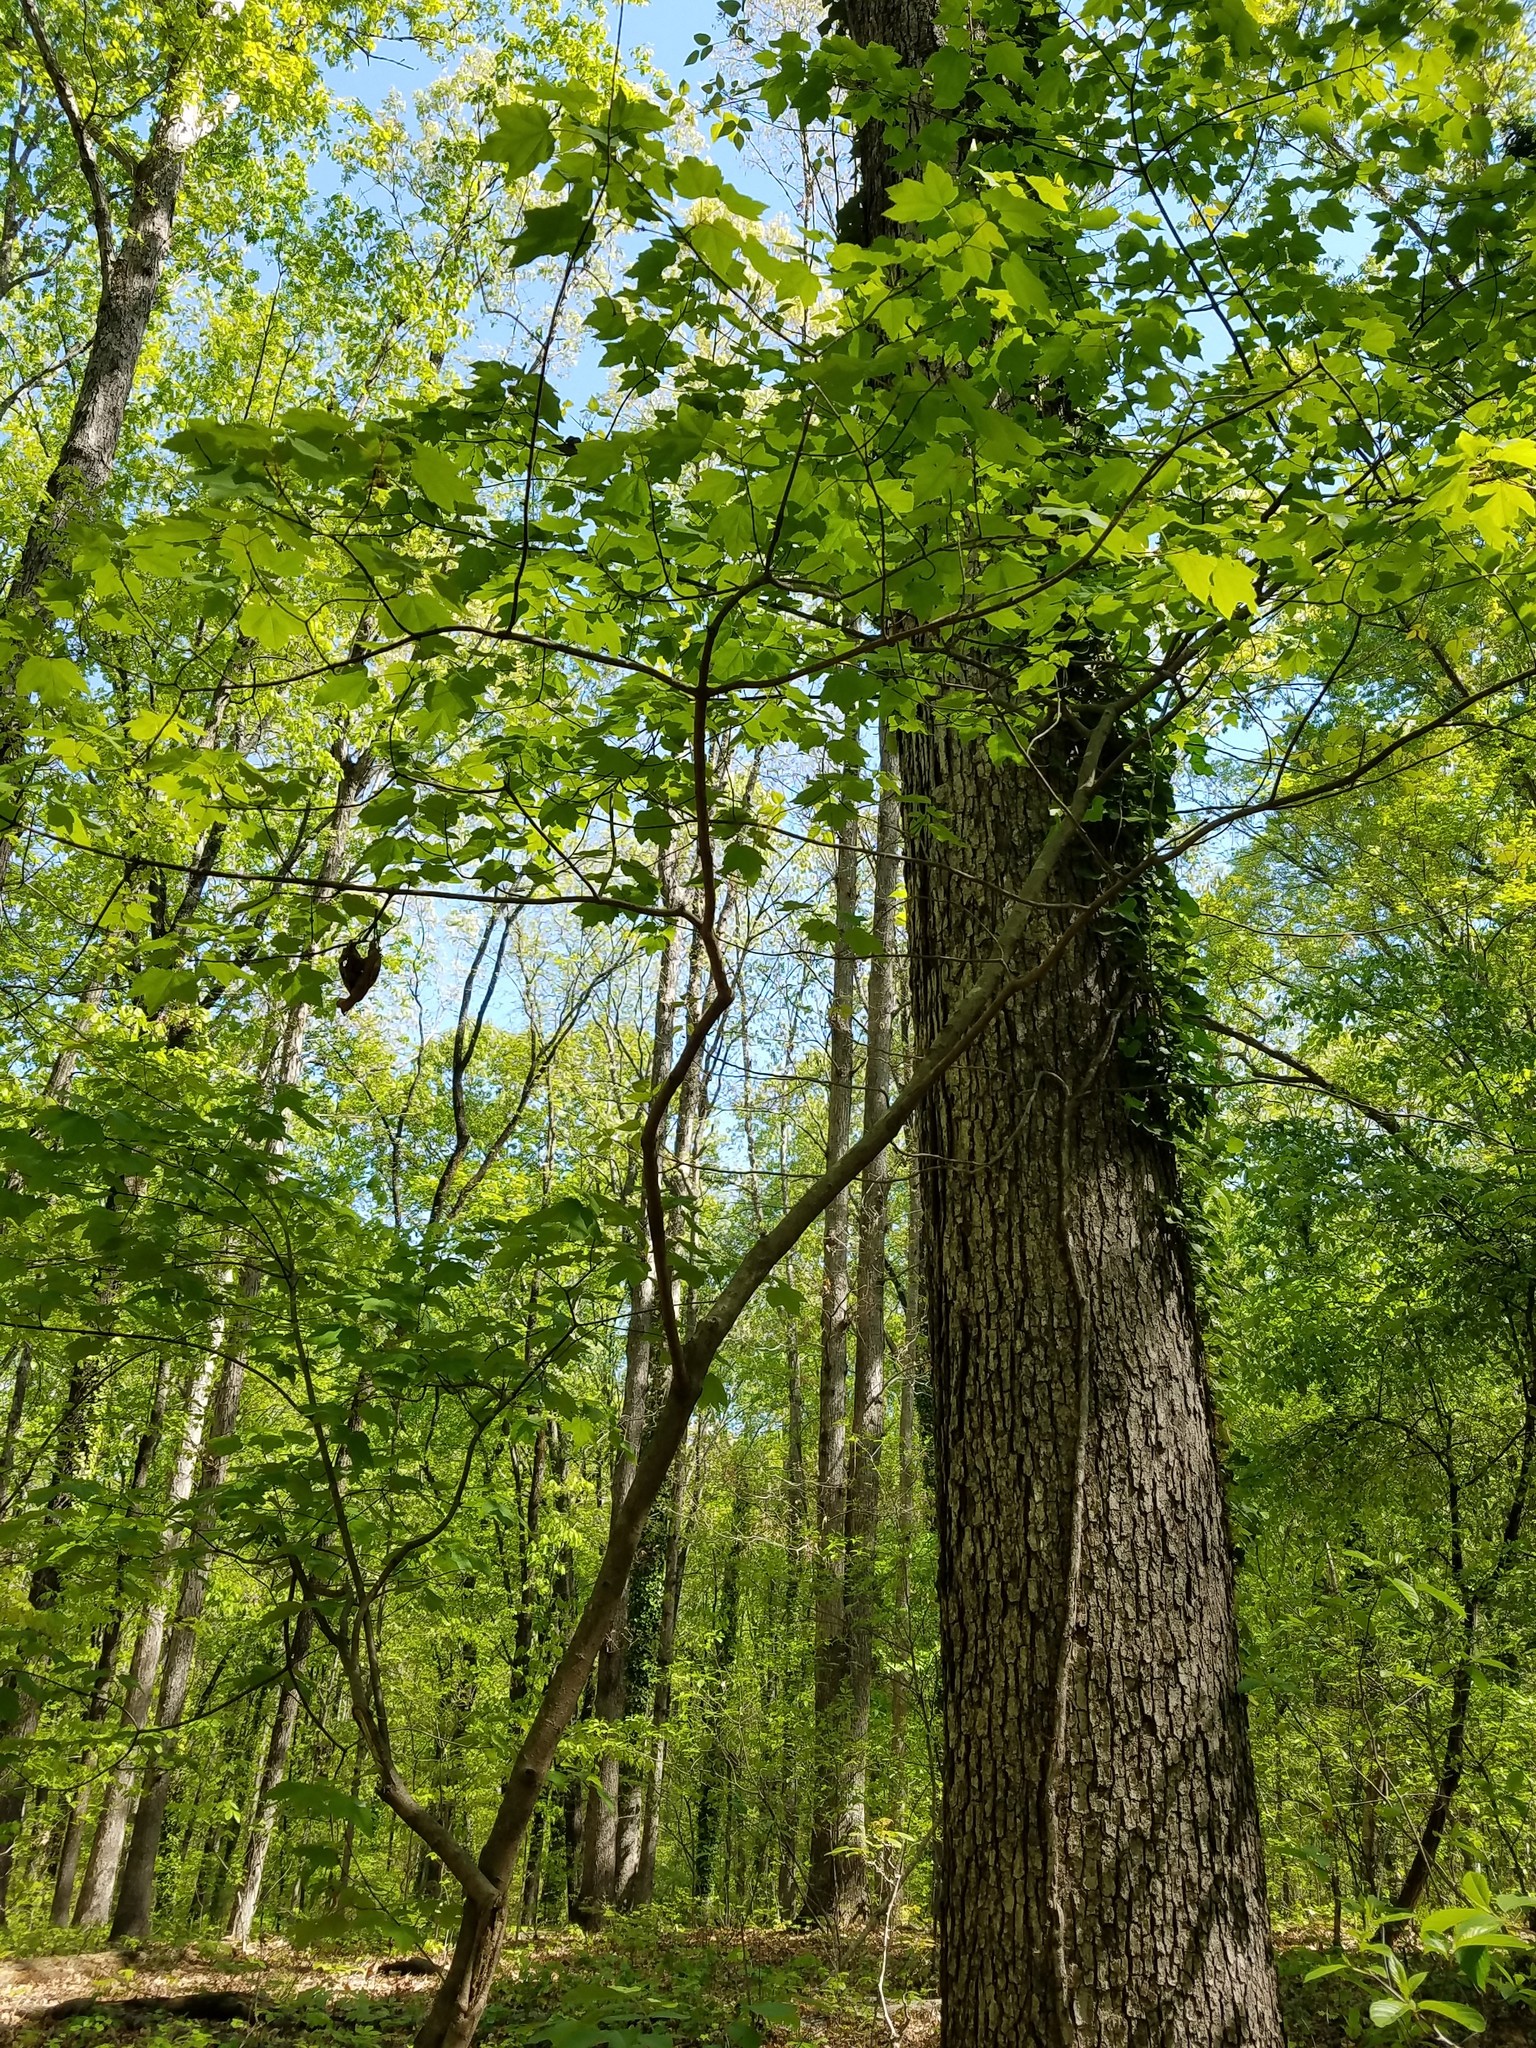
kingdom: Plantae
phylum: Tracheophyta
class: Magnoliopsida
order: Sapindales
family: Sapindaceae
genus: Acer
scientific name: Acer rubrum
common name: Red maple
